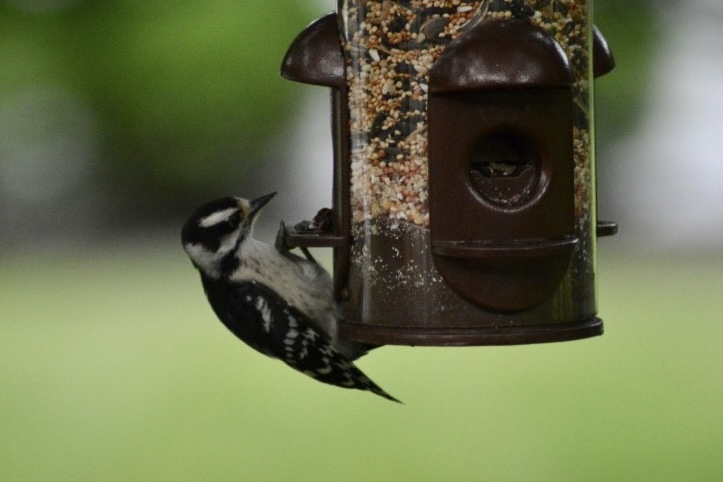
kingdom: Animalia
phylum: Chordata
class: Aves
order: Piciformes
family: Picidae
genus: Dryobates
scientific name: Dryobates pubescens
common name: Downy woodpecker
